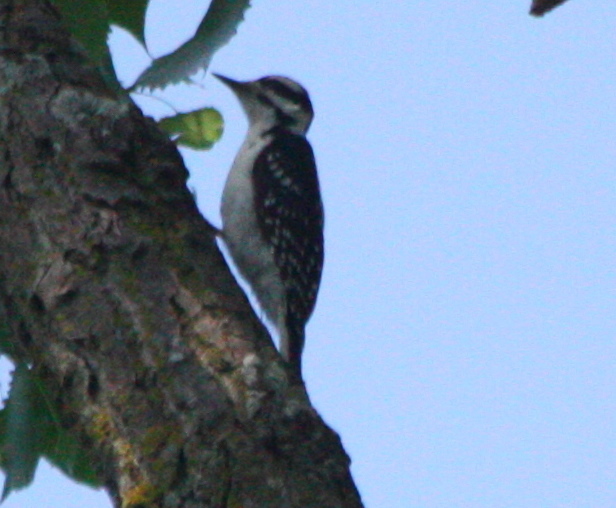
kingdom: Animalia
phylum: Chordata
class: Aves
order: Piciformes
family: Picidae
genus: Leuconotopicus
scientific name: Leuconotopicus villosus
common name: Hairy woodpecker
